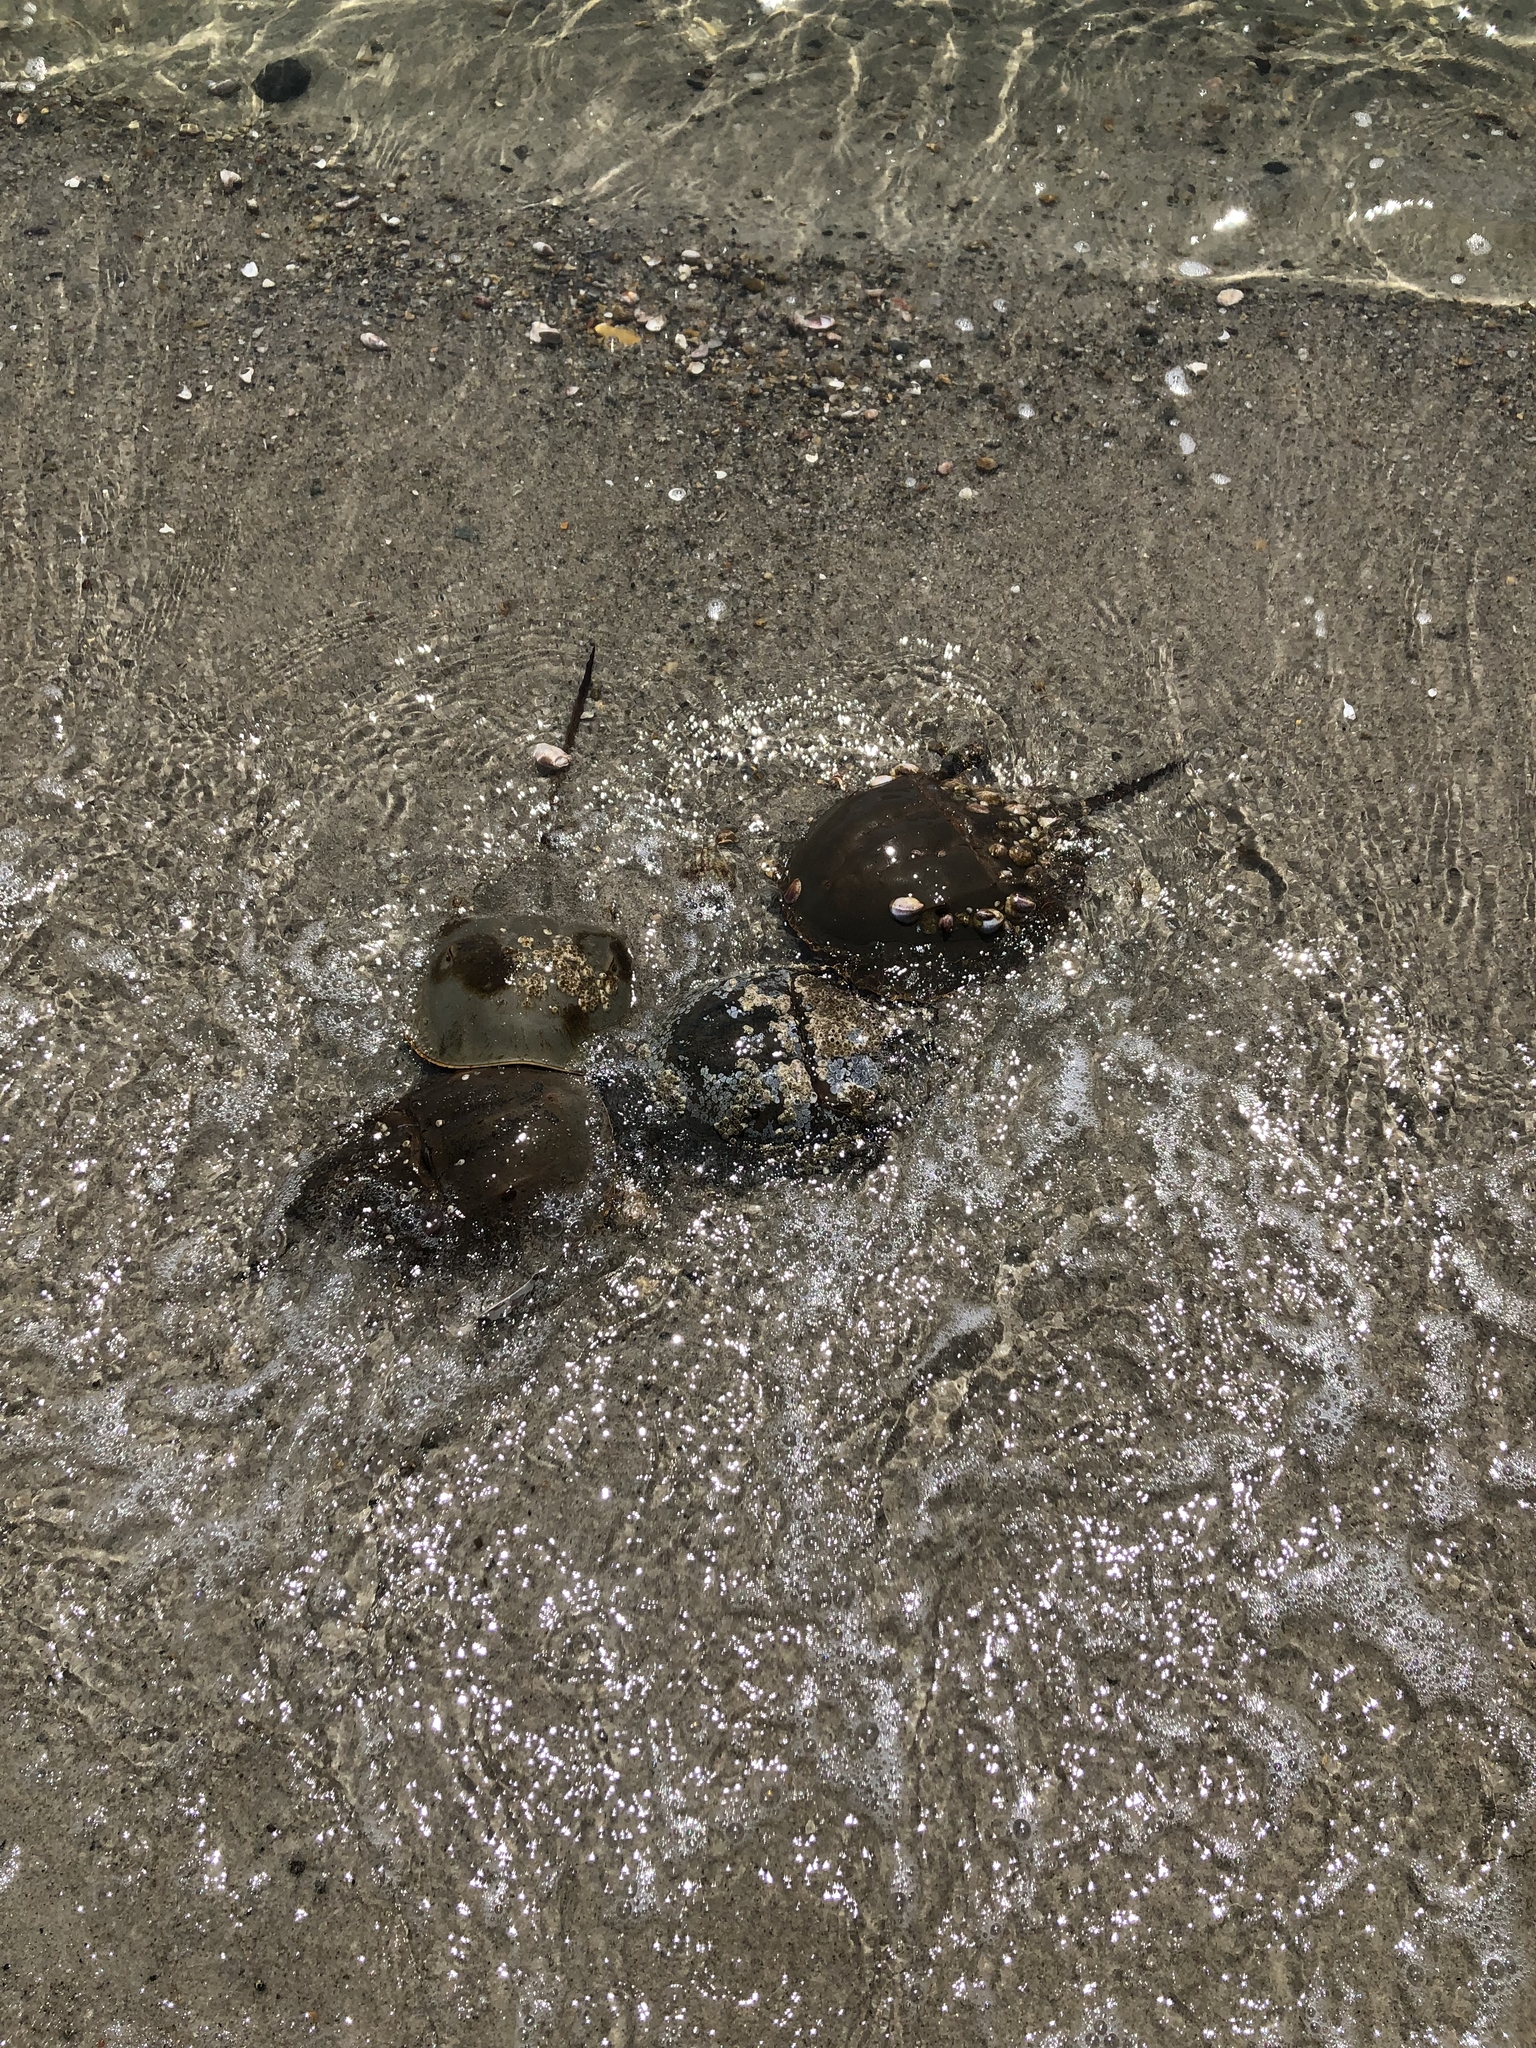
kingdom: Animalia
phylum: Arthropoda
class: Merostomata
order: Xiphosurida
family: Limulidae
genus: Limulus
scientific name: Limulus polyphemus
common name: Horseshoe crab
